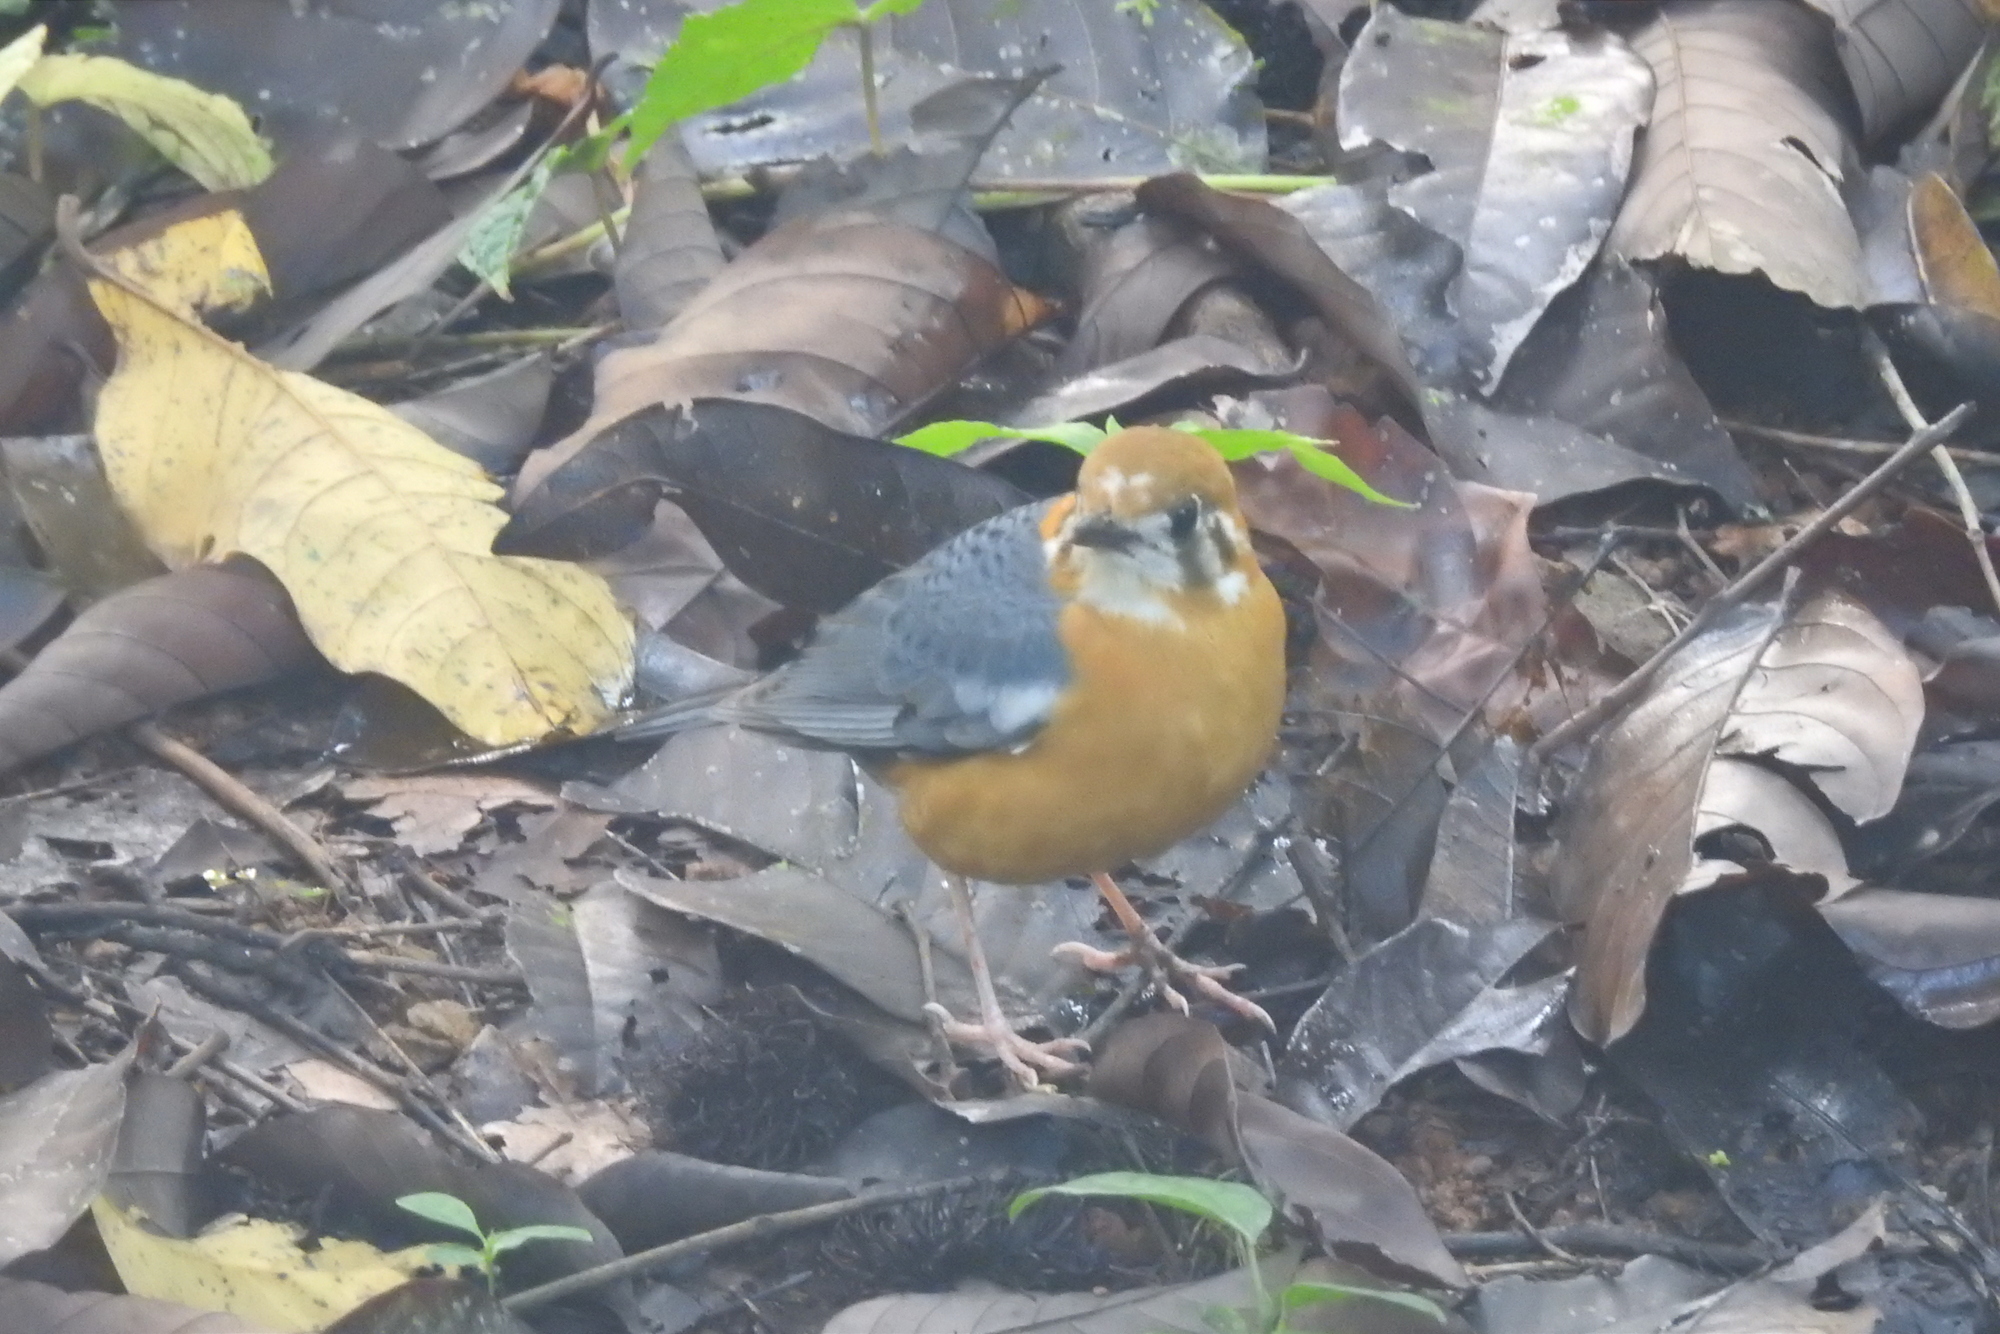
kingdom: Animalia
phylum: Chordata
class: Aves
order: Passeriformes
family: Turdidae
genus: Geokichla
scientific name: Geokichla citrina
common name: Orange-headed thrush
